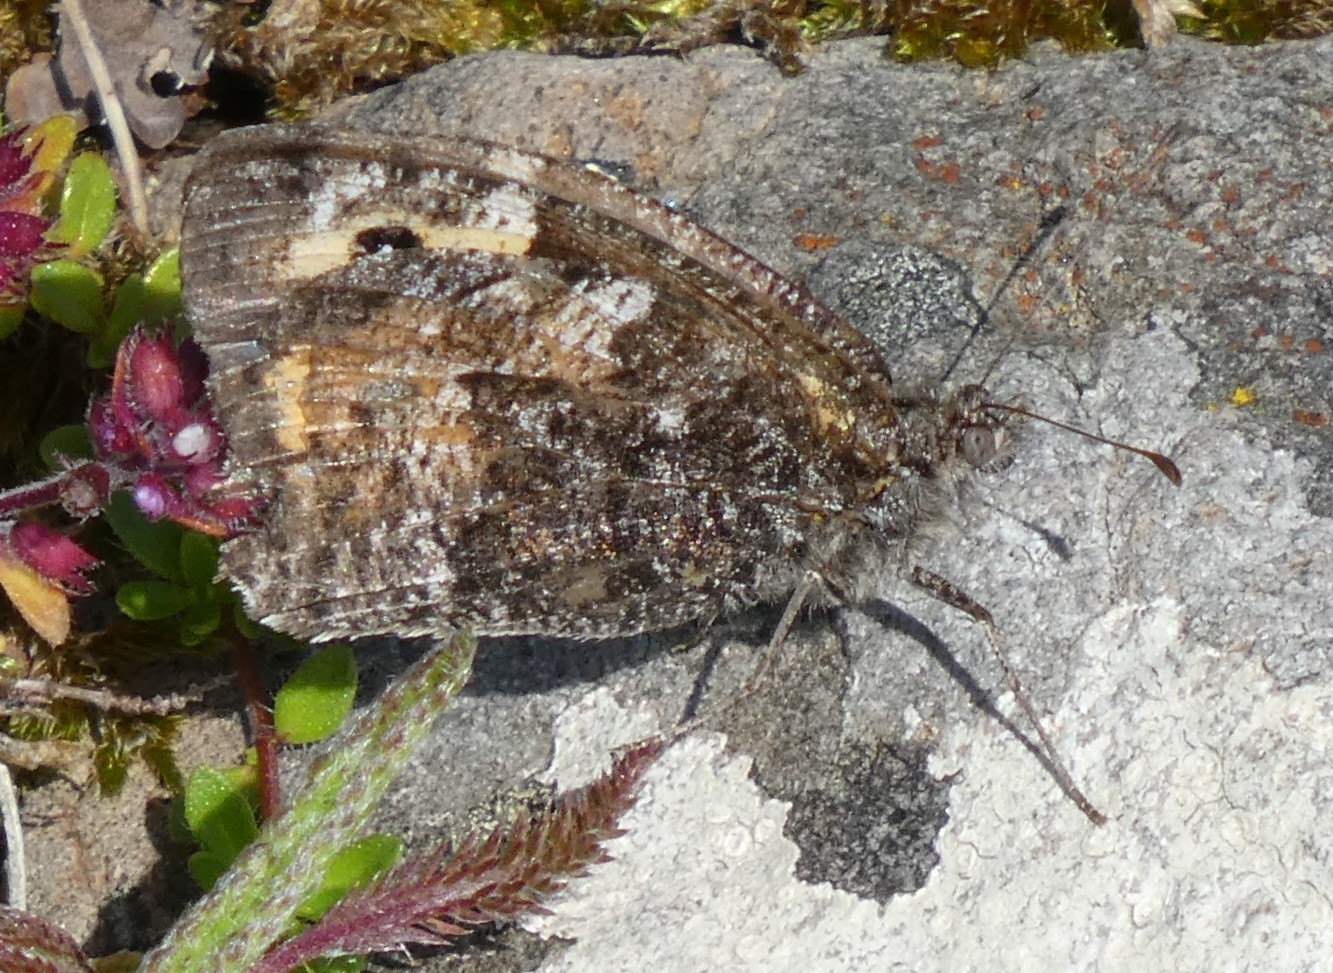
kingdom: Animalia
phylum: Arthropoda
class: Insecta
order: Lepidoptera
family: Nymphalidae
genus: Hipparchia
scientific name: Hipparchia semele
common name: Grayling
